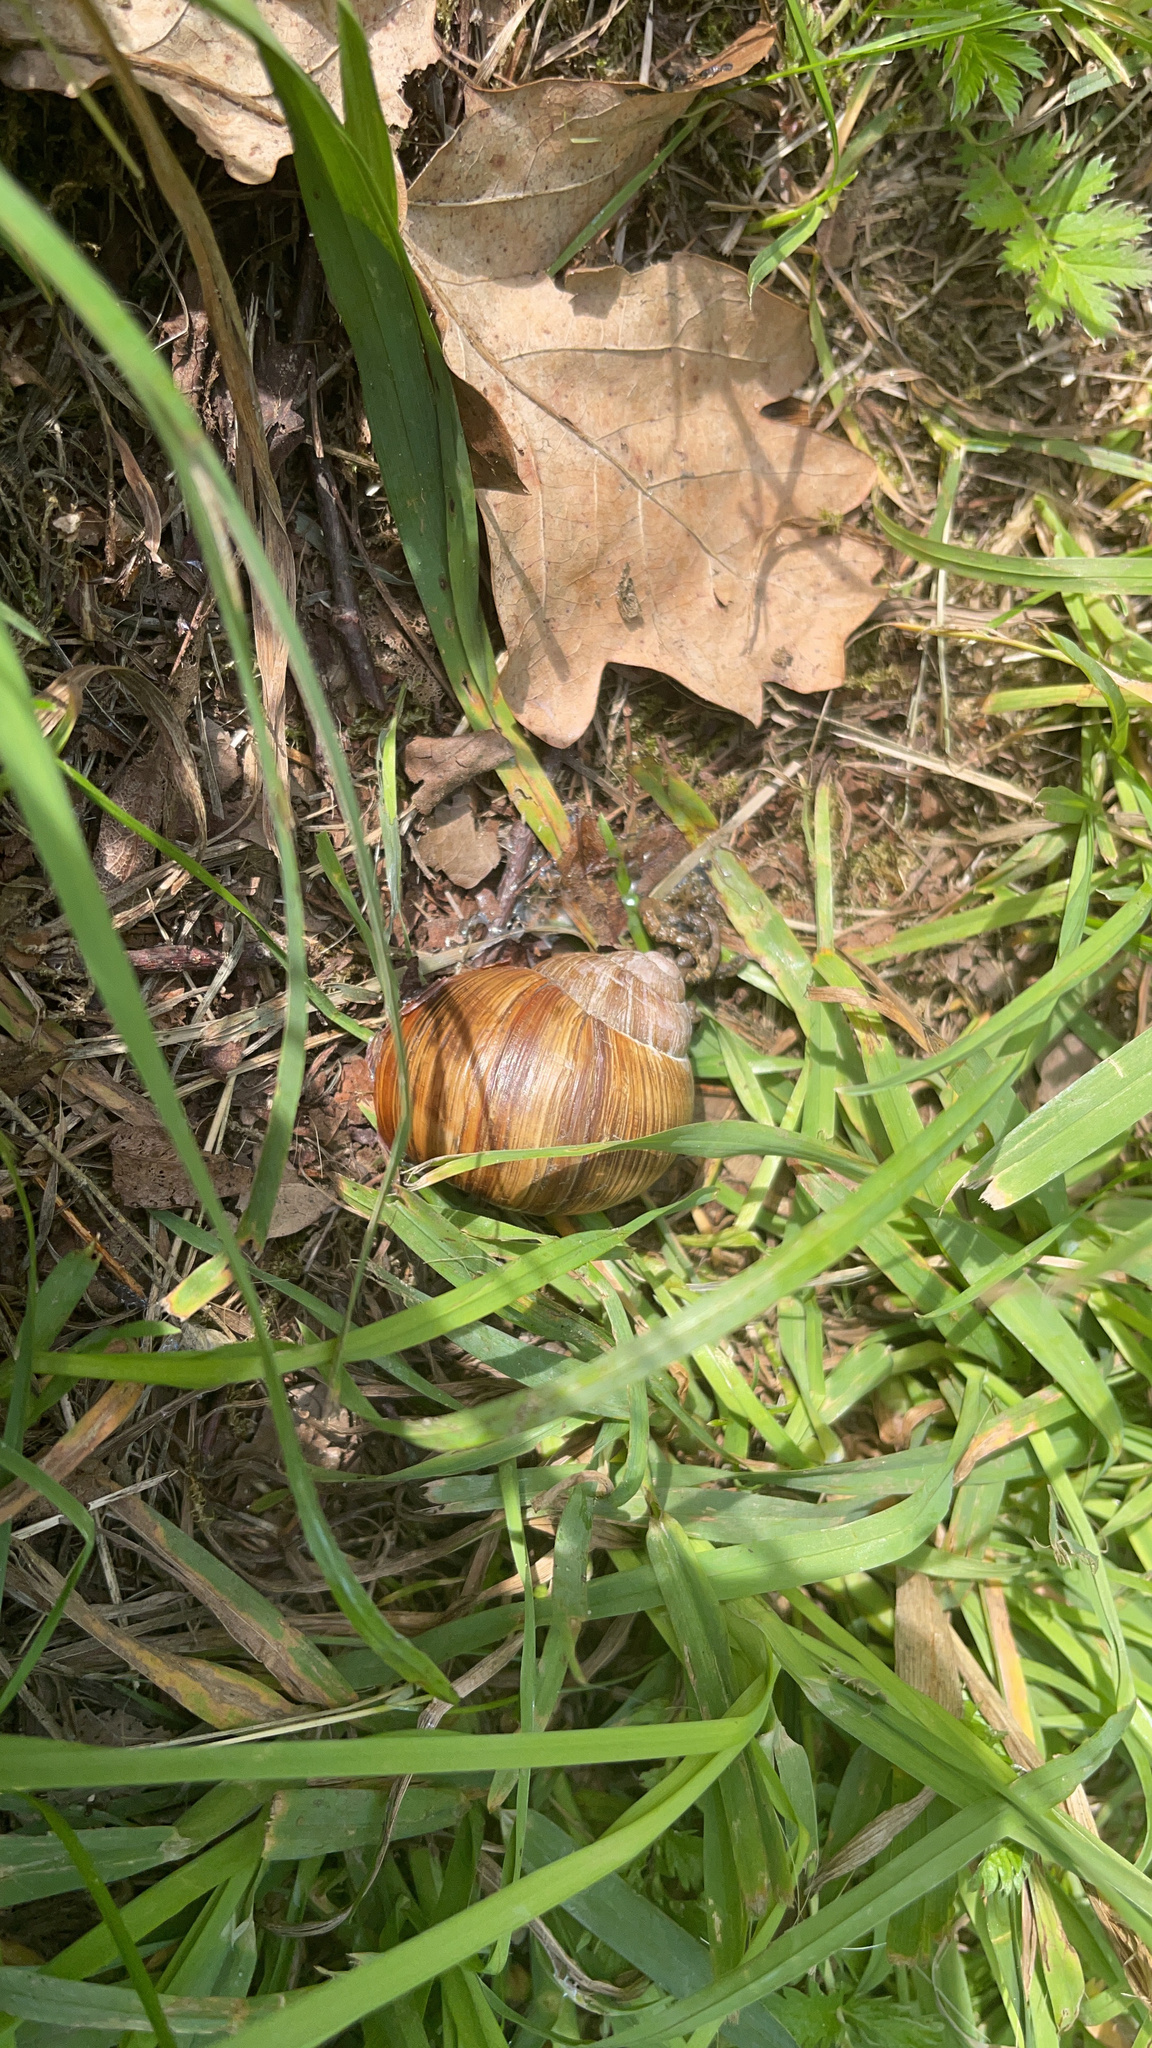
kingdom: Animalia
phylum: Mollusca
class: Gastropoda
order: Stylommatophora
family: Helicidae
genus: Helix
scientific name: Helix pomatia
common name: Roman snail
